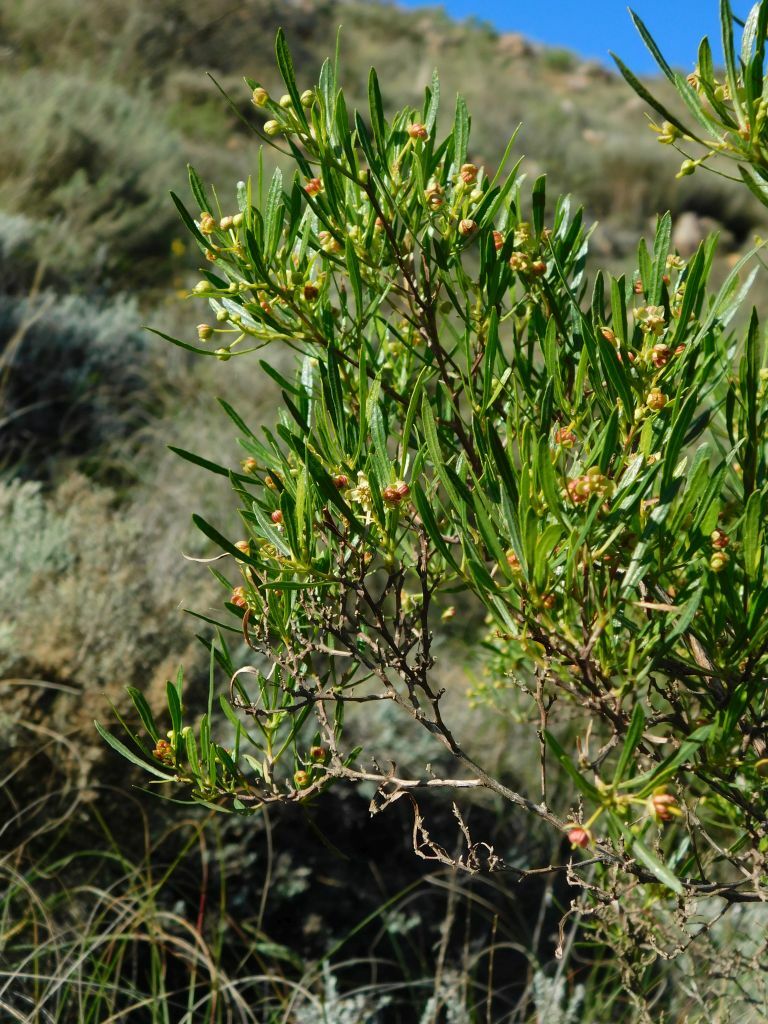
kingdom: Plantae
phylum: Tracheophyta
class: Magnoliopsida
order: Sapindales
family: Sapindaceae
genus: Dodonaea
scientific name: Dodonaea viscosa
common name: Hopbush
